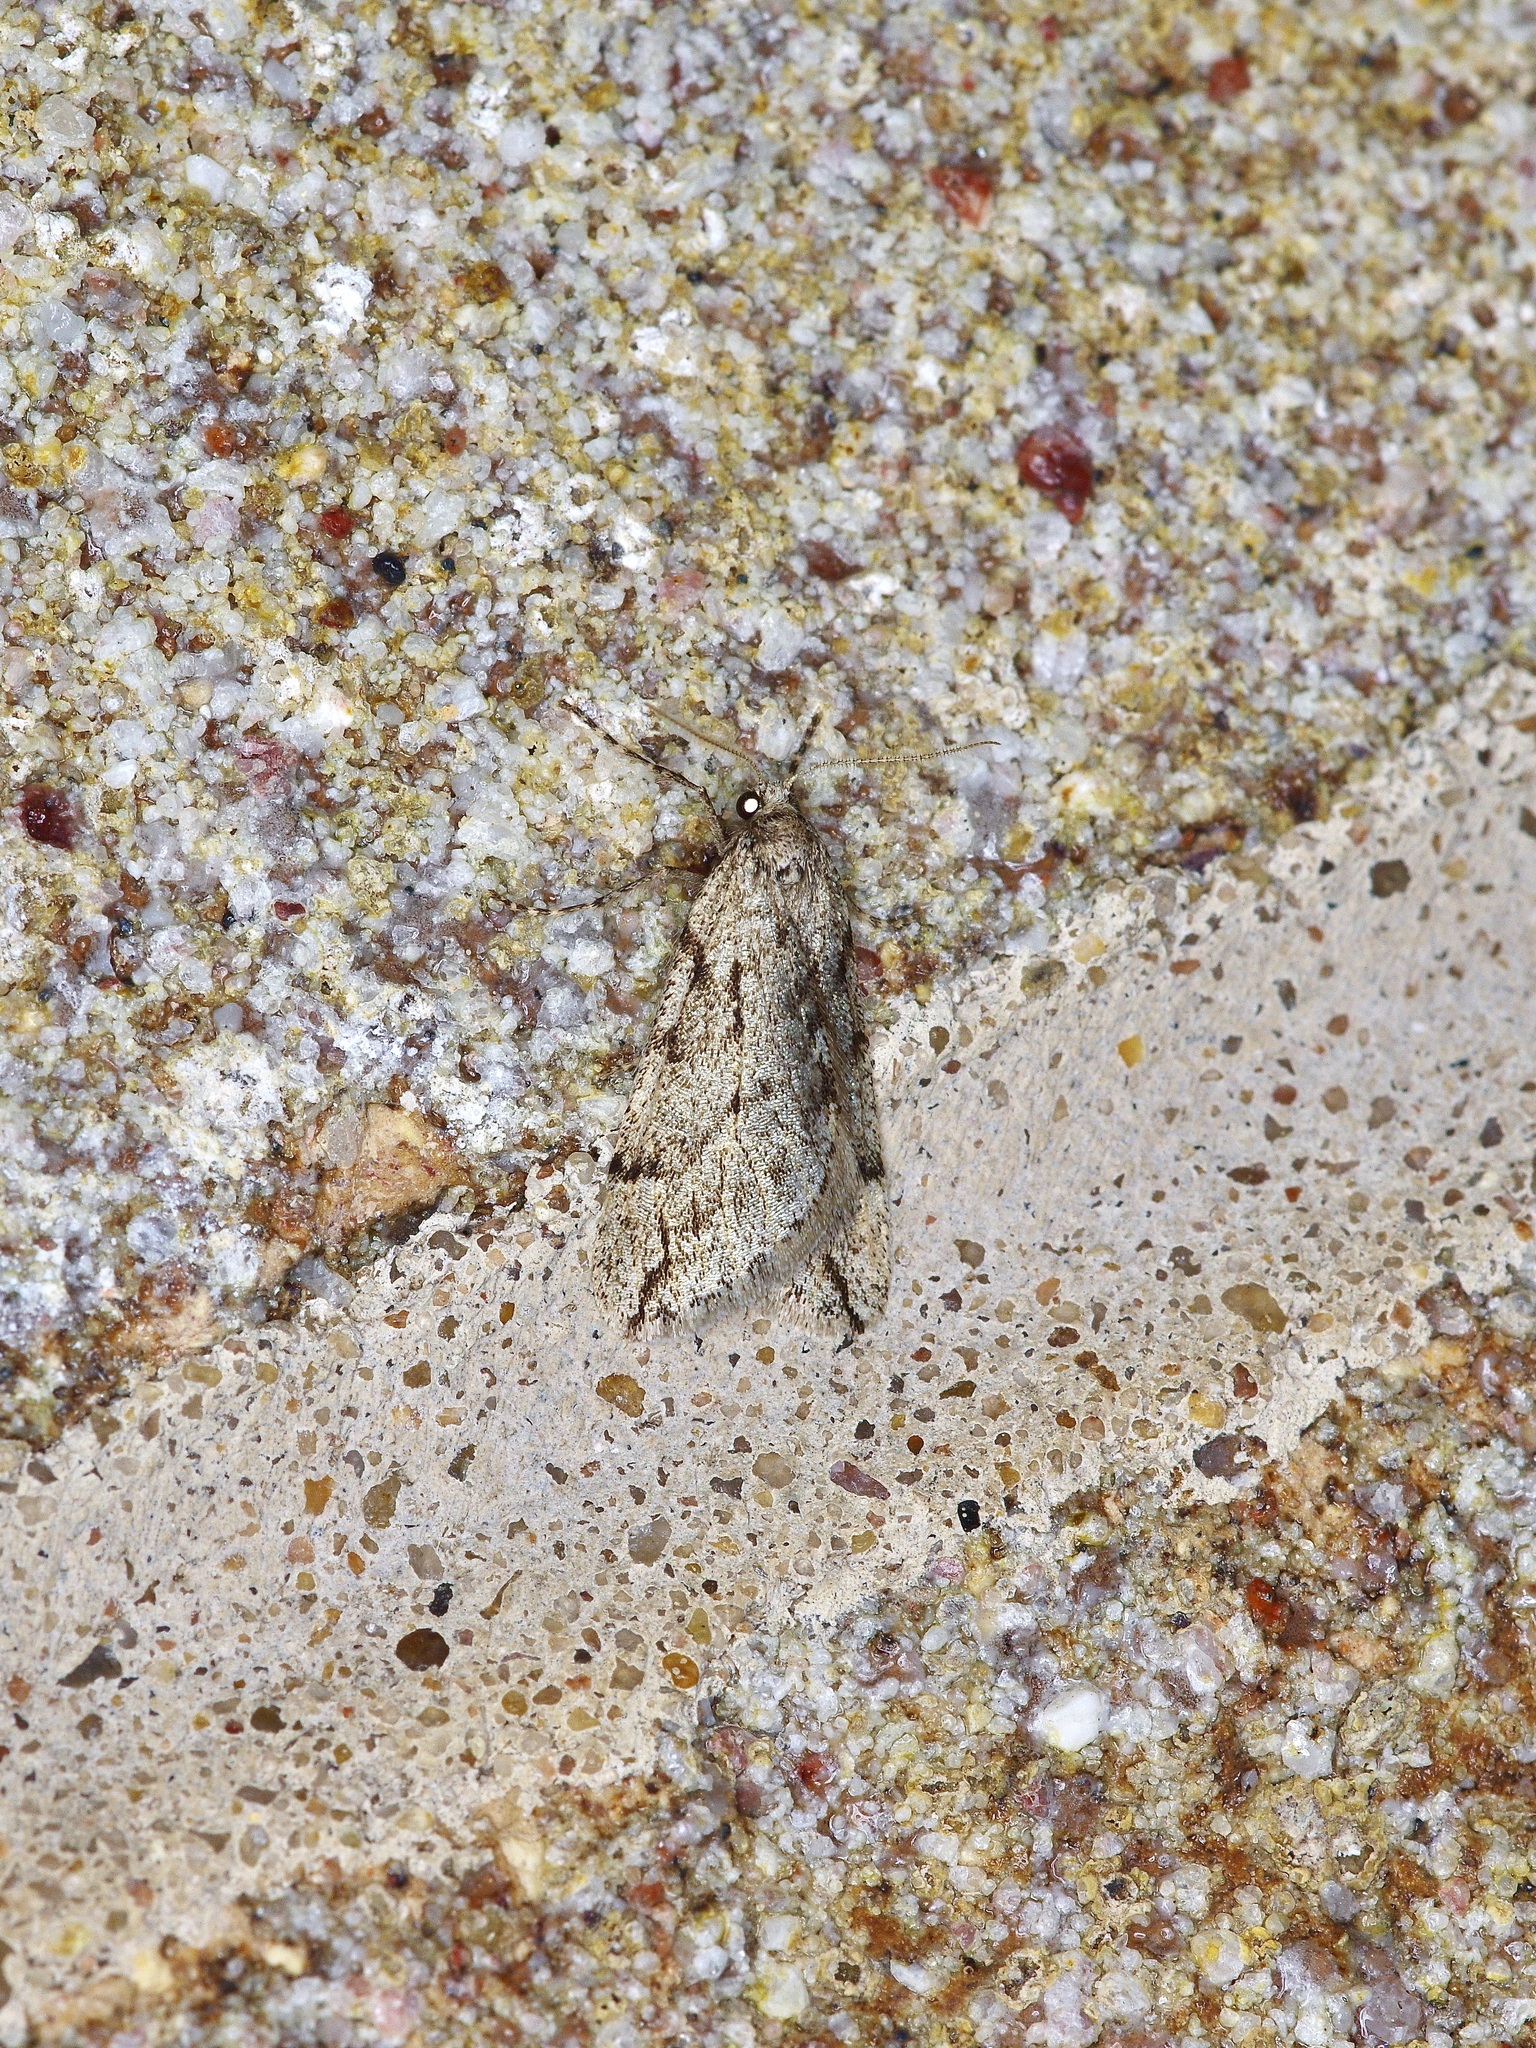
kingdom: Animalia
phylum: Arthropoda
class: Insecta
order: Lepidoptera
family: Geometridae
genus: Paleacrita
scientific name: Paleacrita vernata
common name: Spring cankerworm
